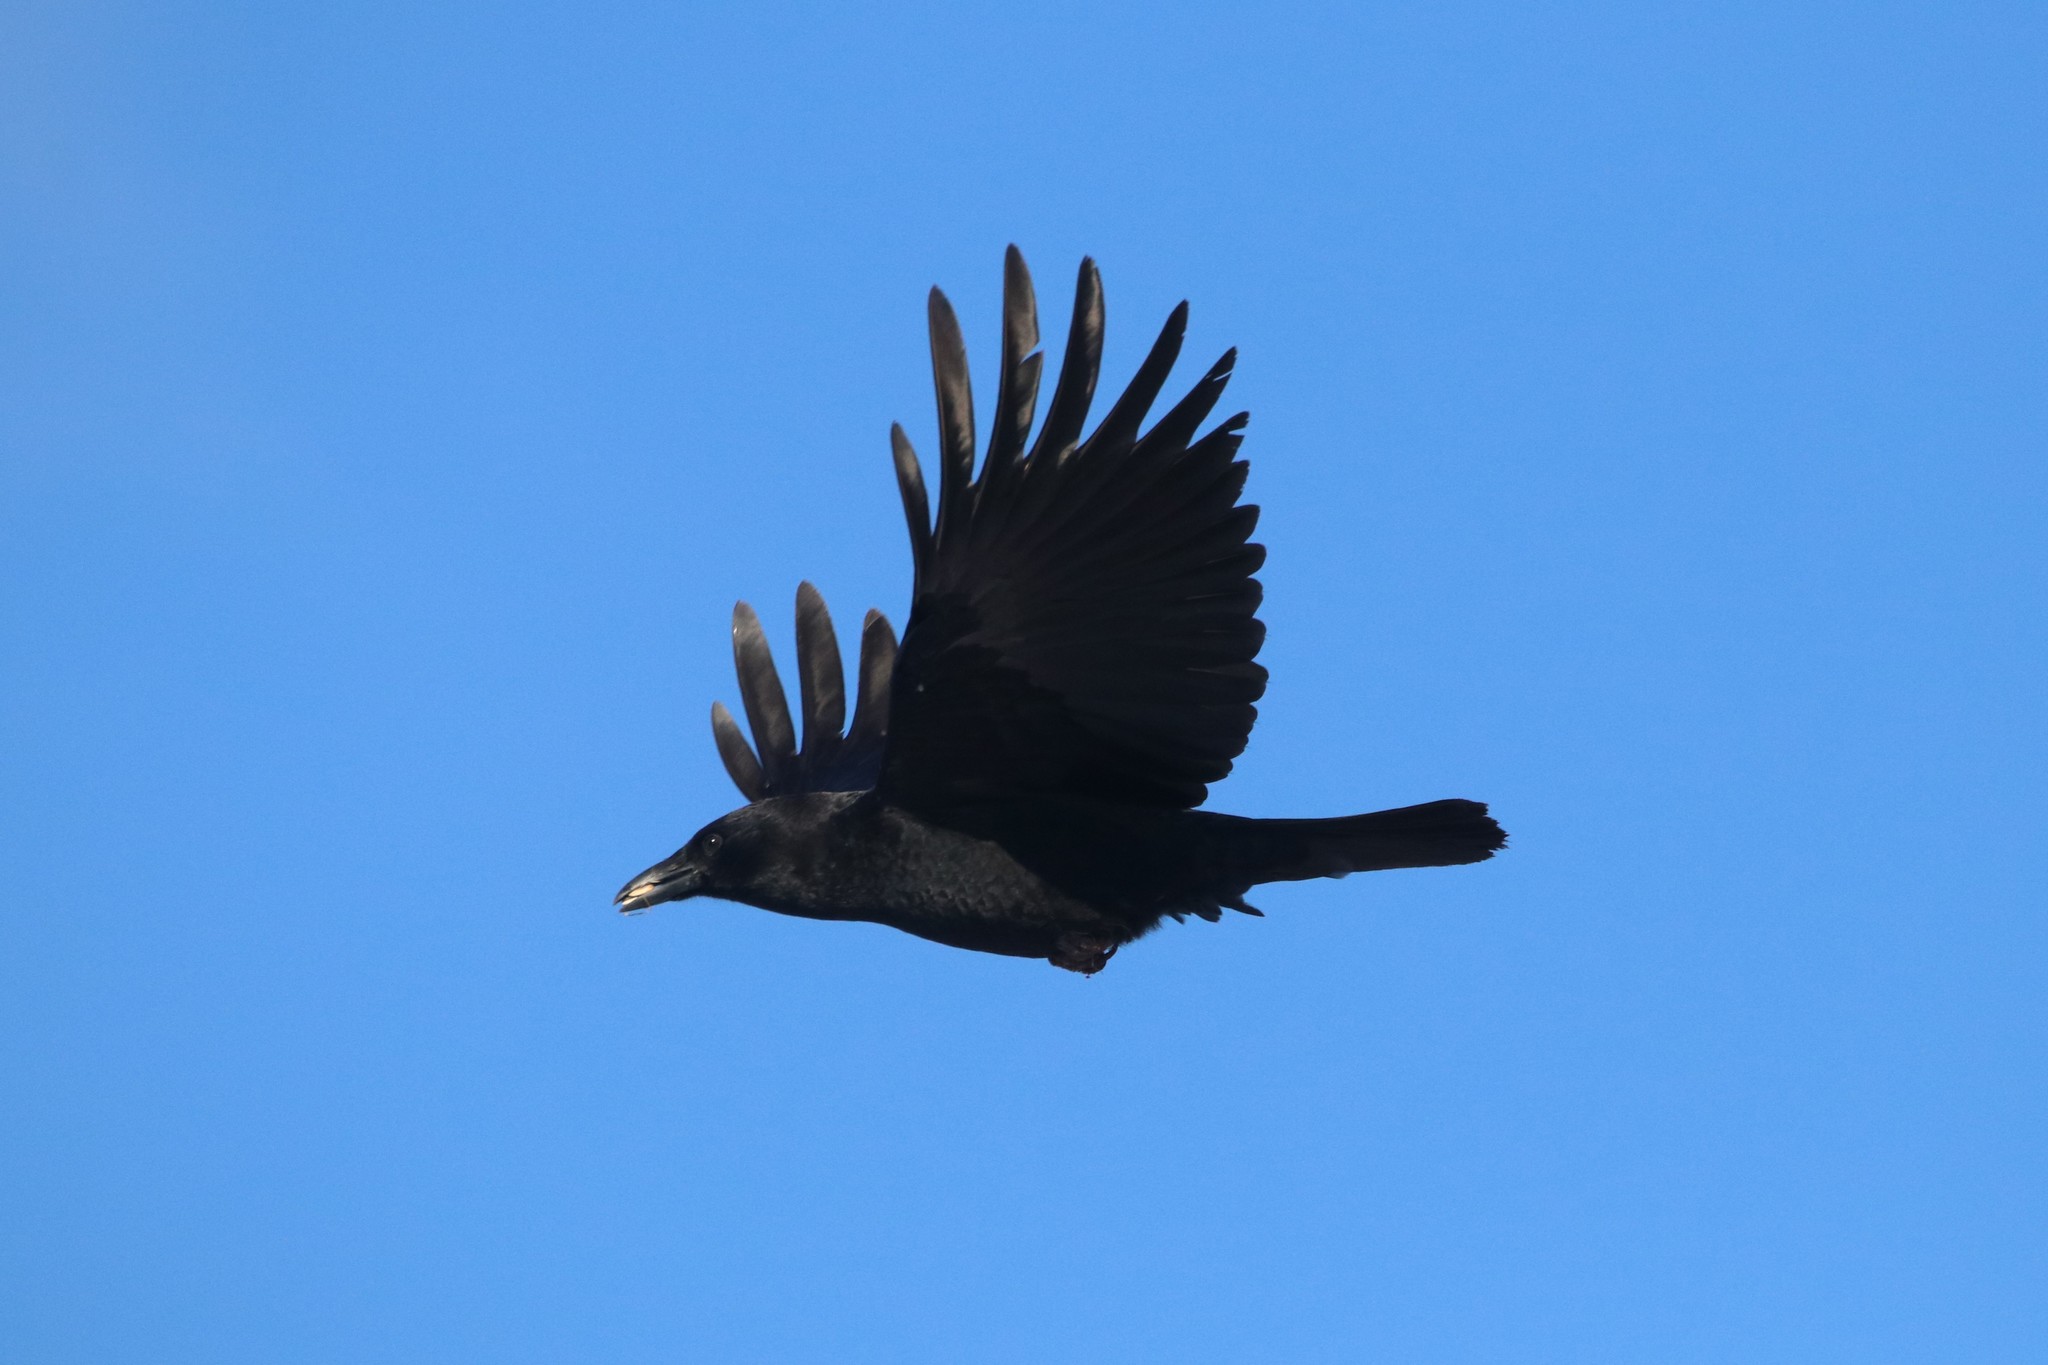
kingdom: Animalia
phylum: Chordata
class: Aves
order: Passeriformes
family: Corvidae
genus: Corvus
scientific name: Corvus brachyrhynchos
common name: American crow
